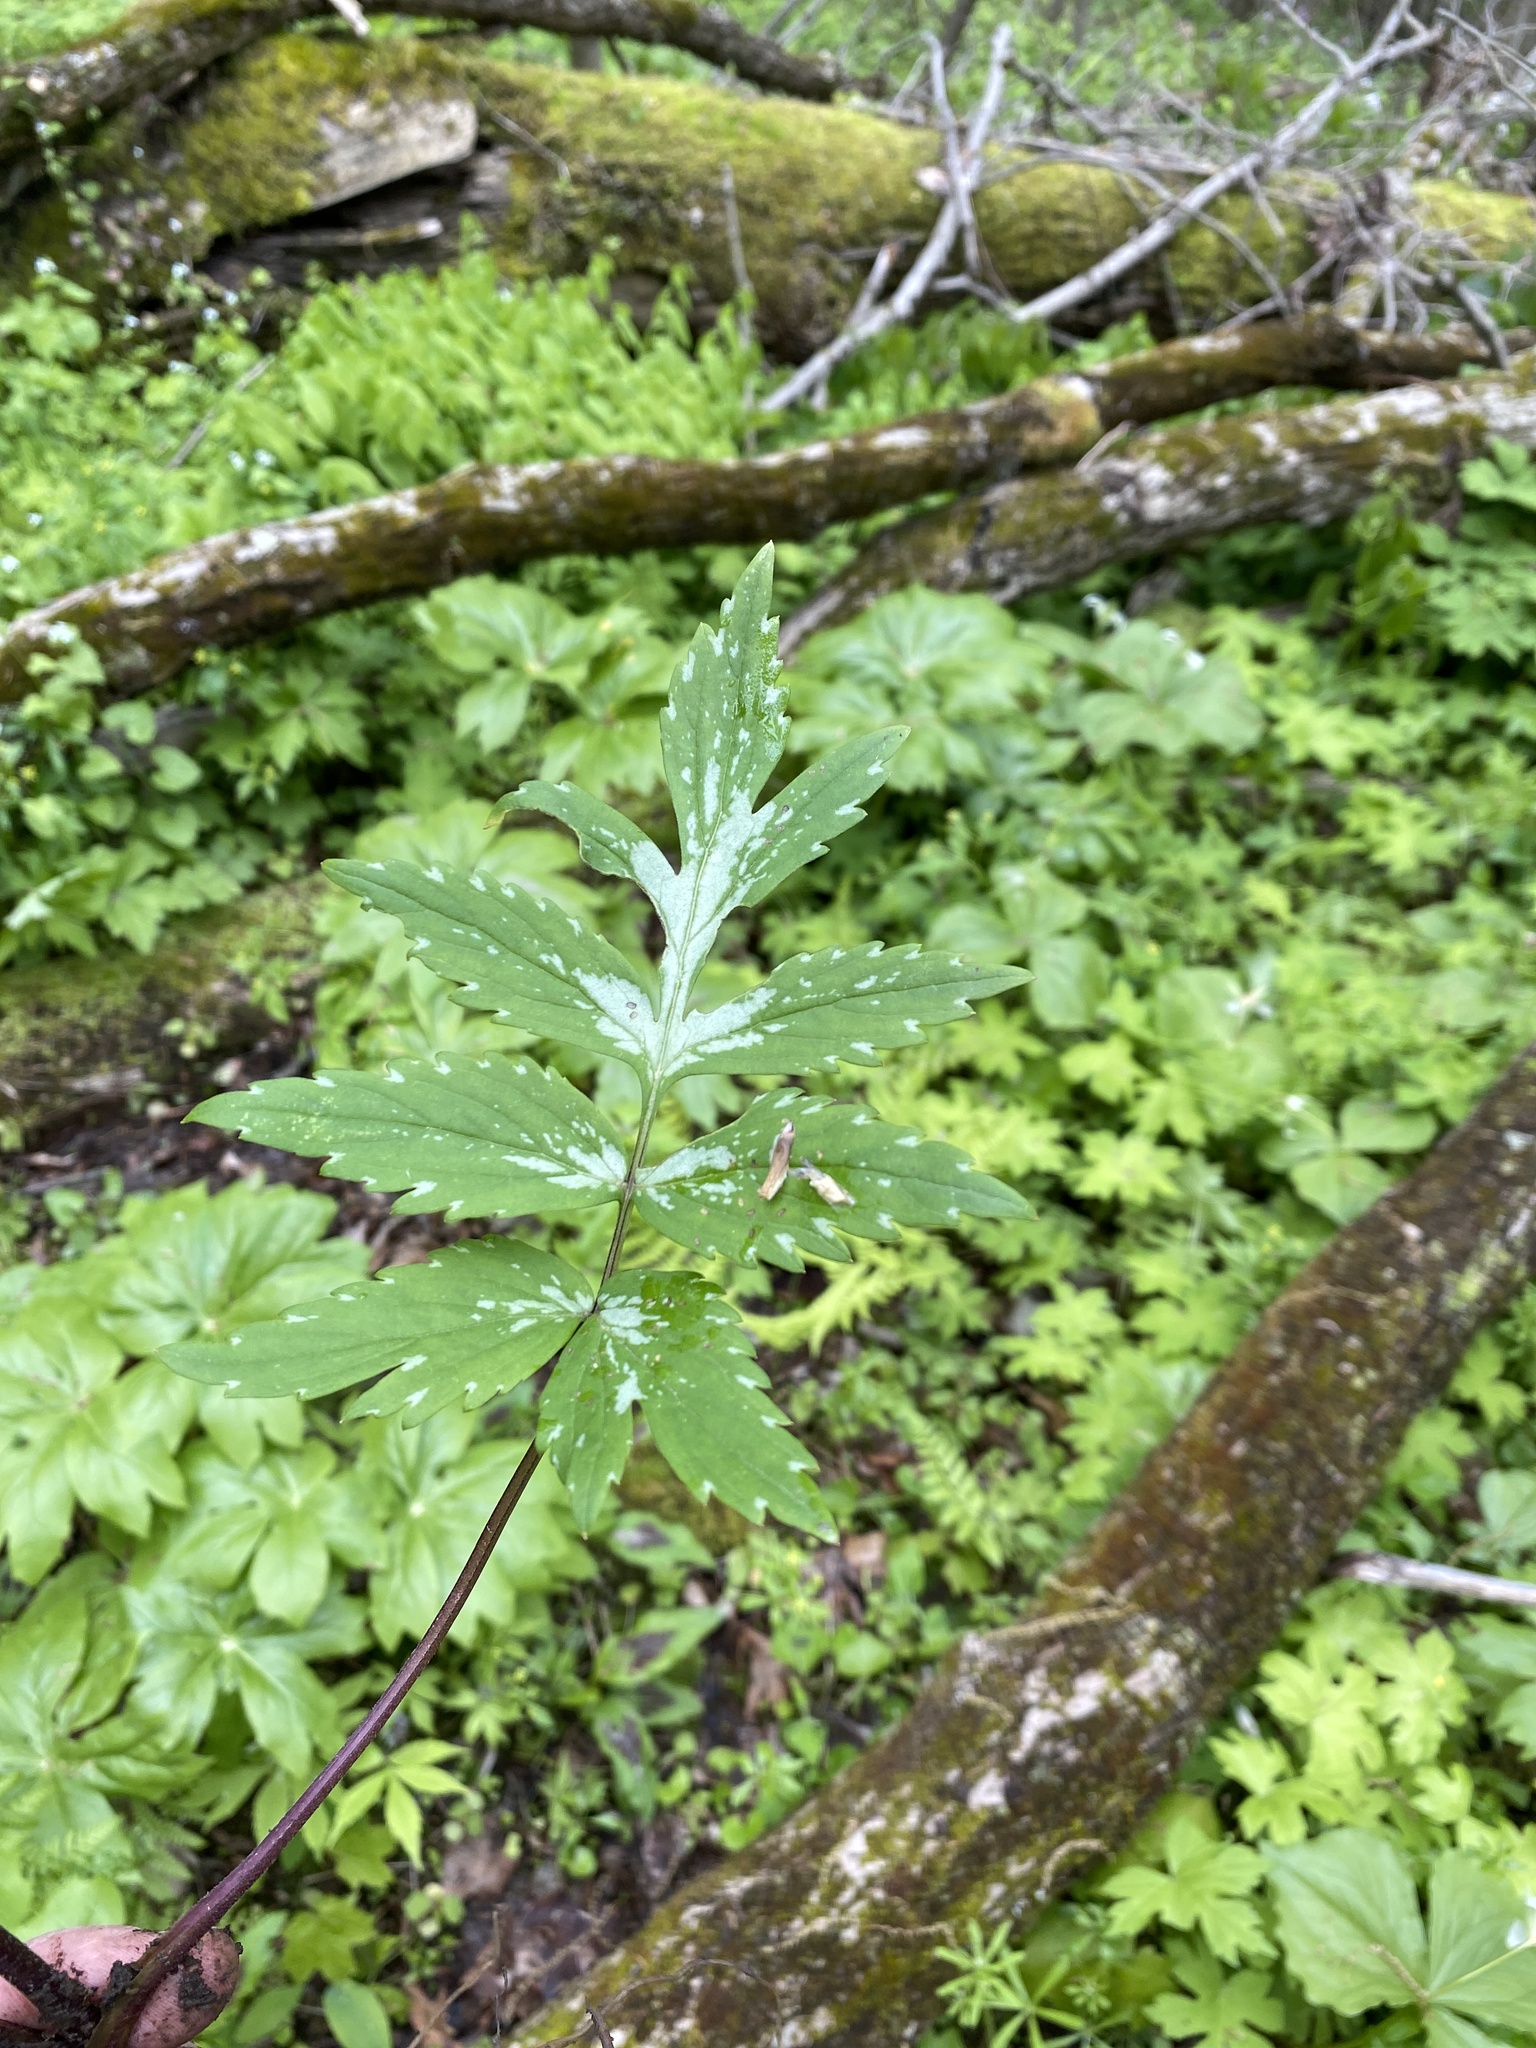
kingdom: Plantae
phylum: Tracheophyta
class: Magnoliopsida
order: Boraginales
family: Hydrophyllaceae
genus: Hydrophyllum
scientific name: Hydrophyllum virginianum
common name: Virginia waterleaf
